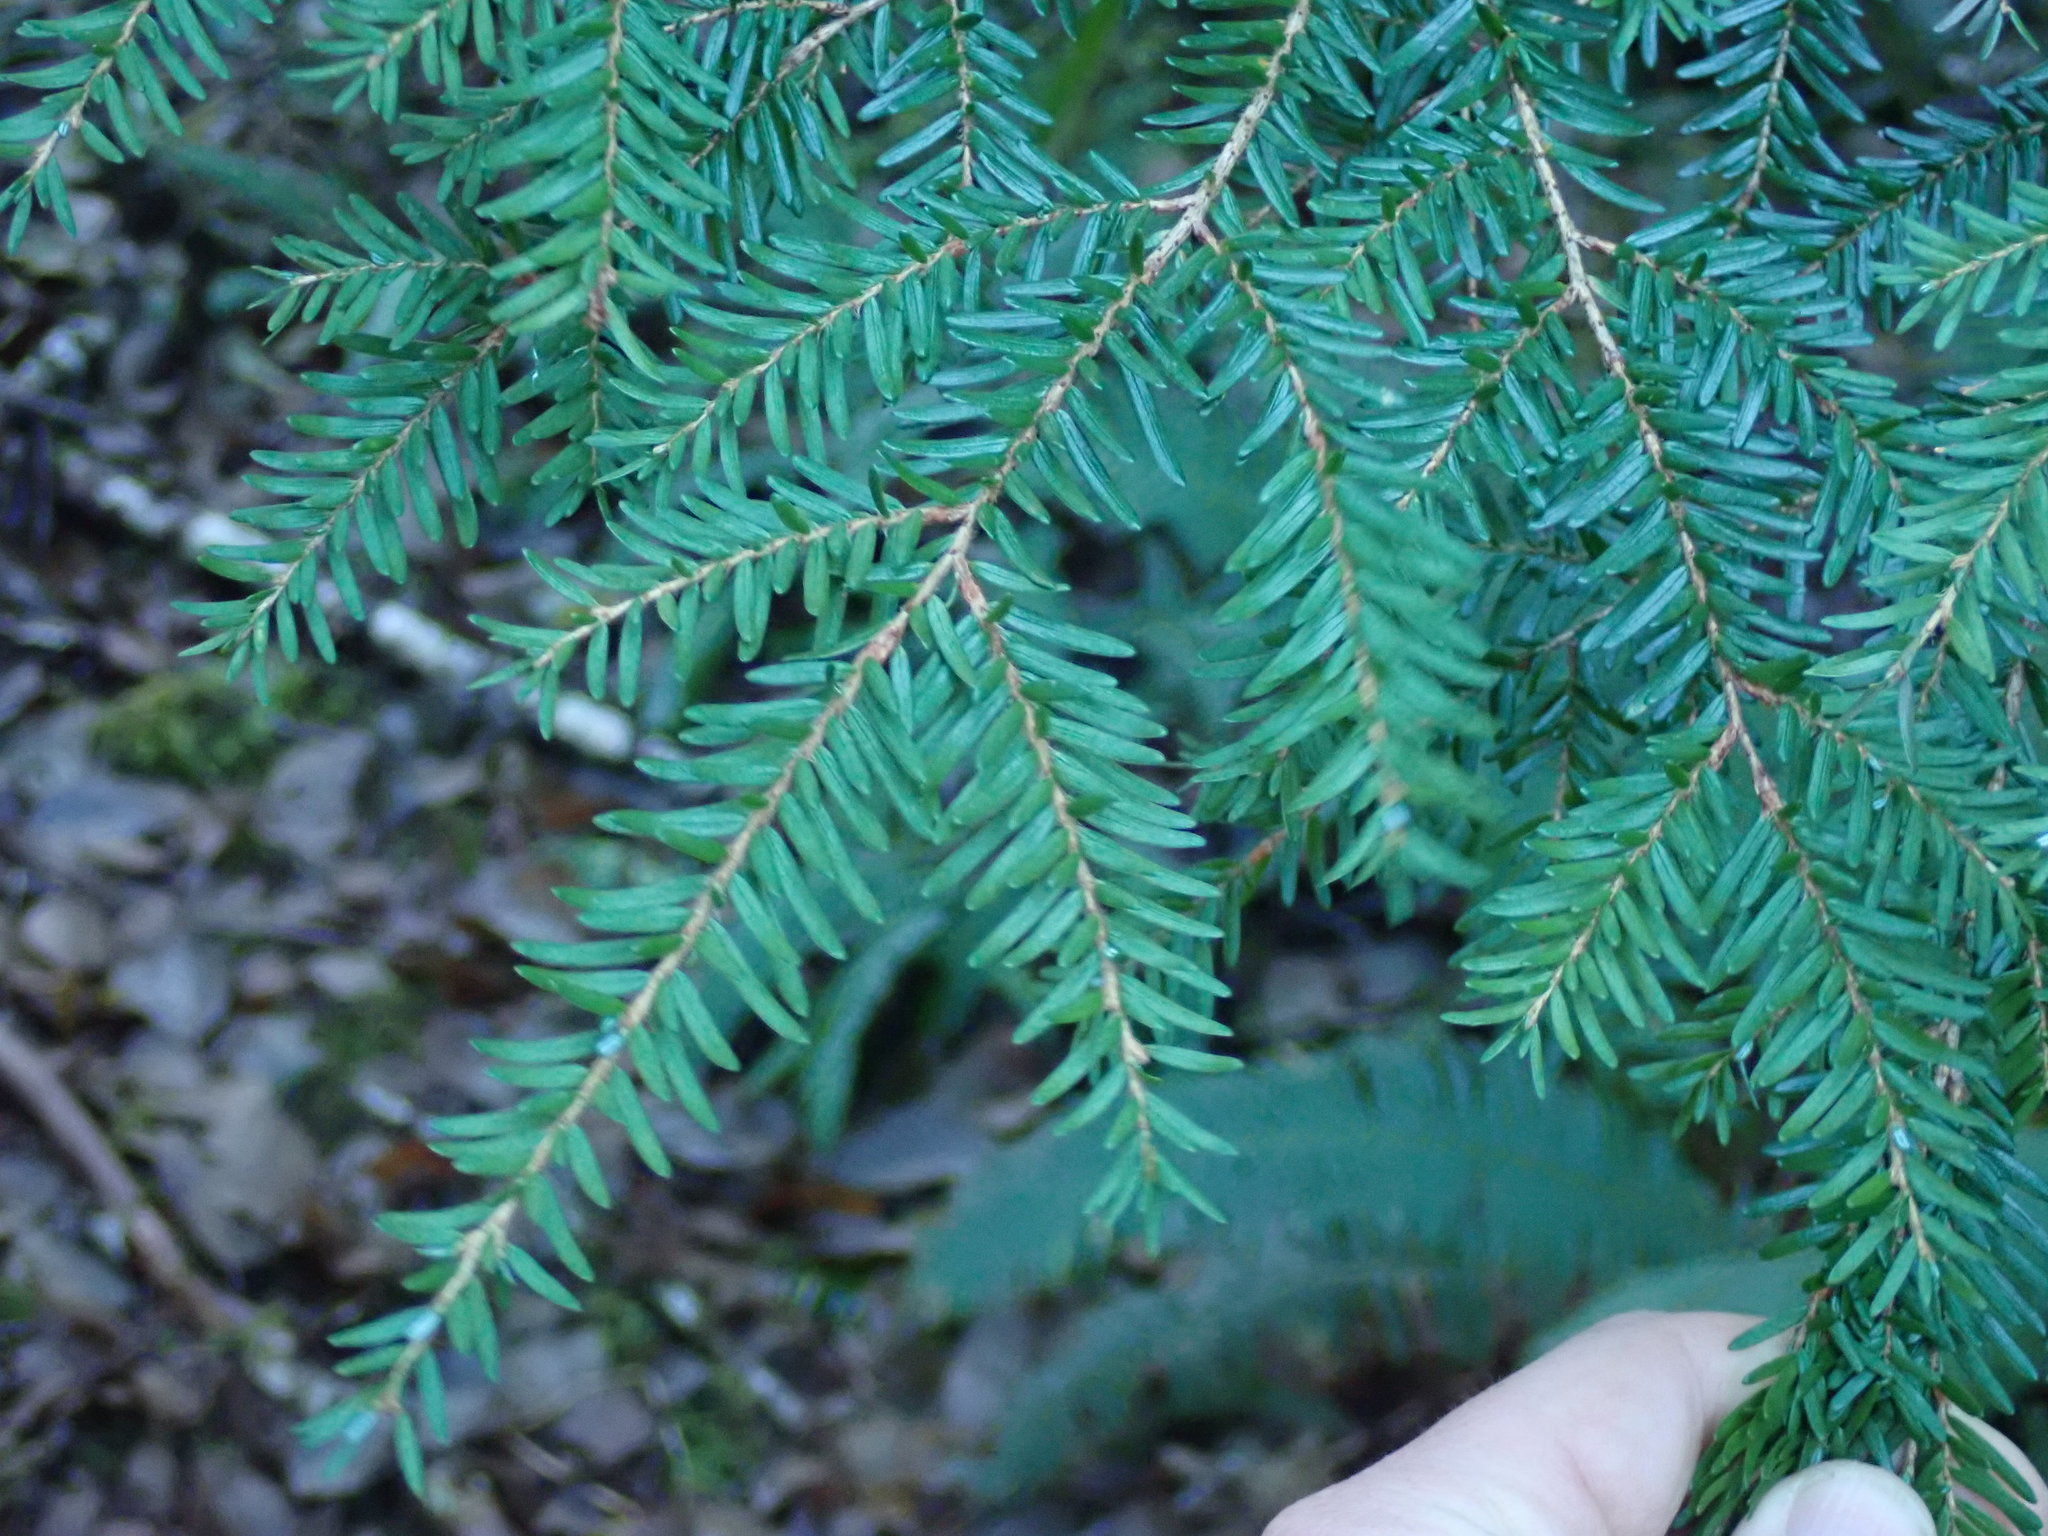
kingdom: Plantae
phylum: Tracheophyta
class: Pinopsida
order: Pinales
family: Pinaceae
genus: Tsuga
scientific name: Tsuga heterophylla
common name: Western hemlock
